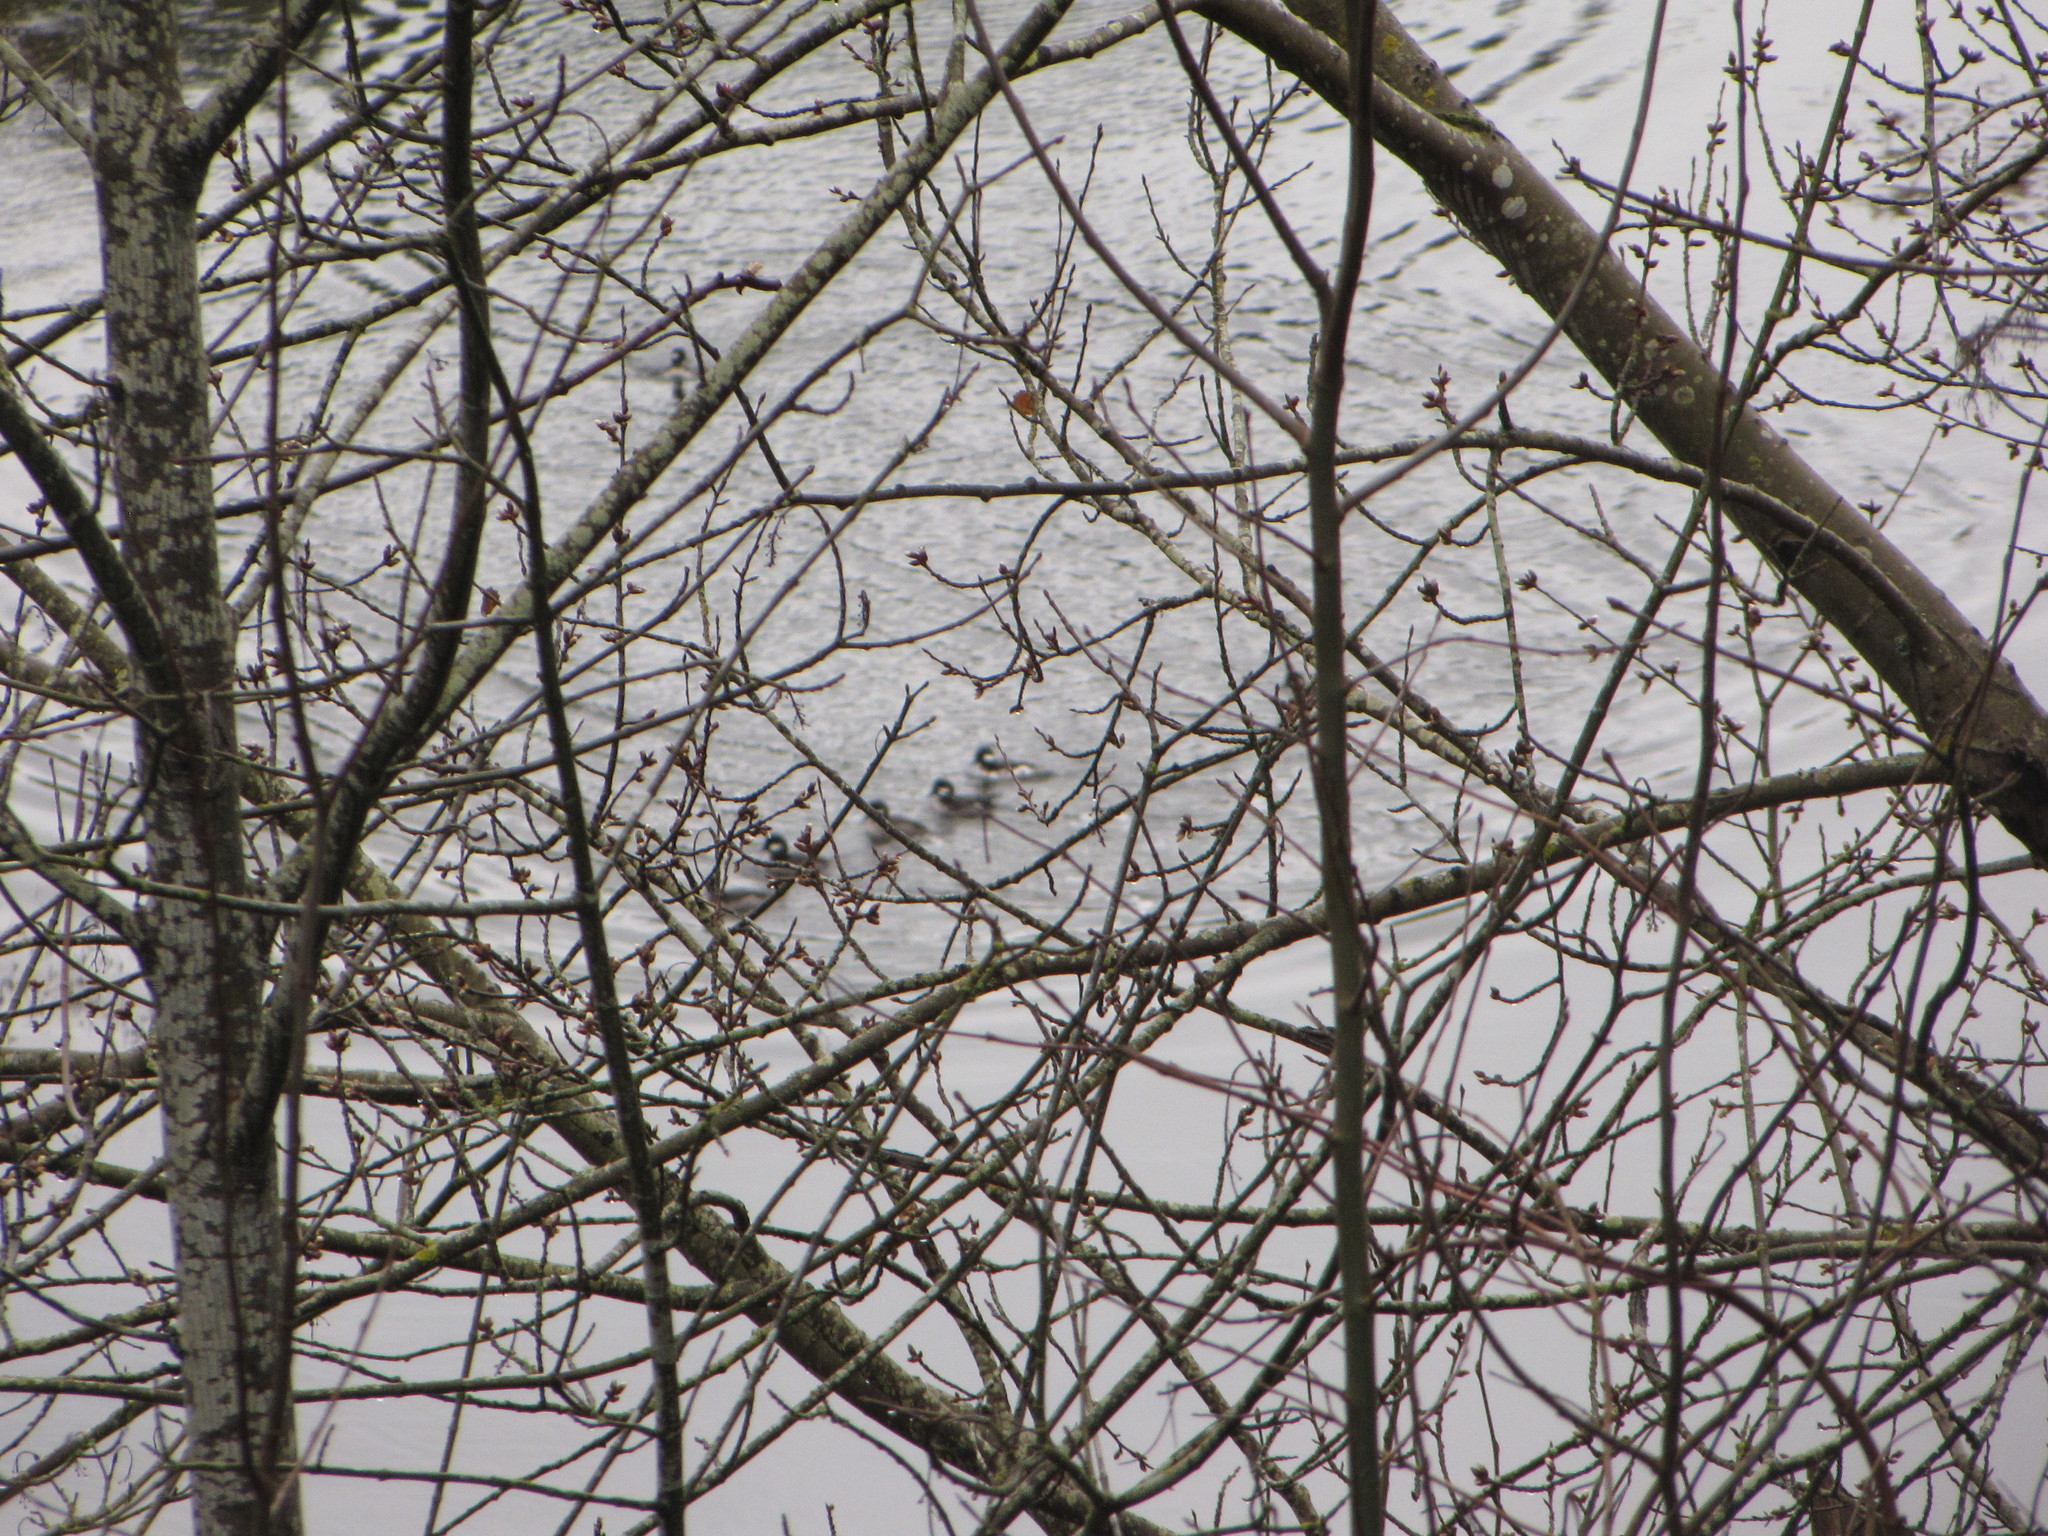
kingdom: Animalia
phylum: Chordata
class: Aves
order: Anseriformes
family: Anatidae
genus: Bucephala
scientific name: Bucephala albeola
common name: Bufflehead
